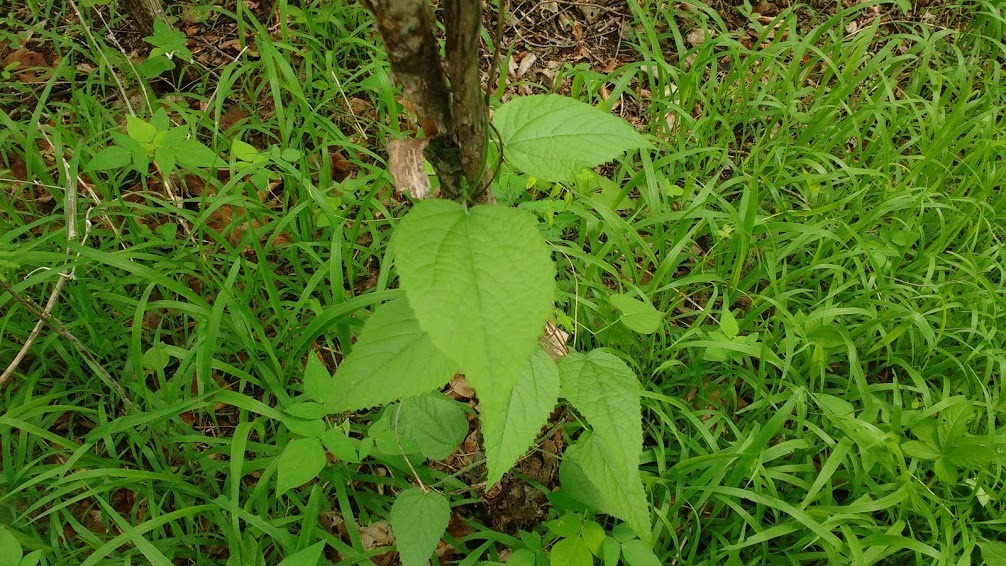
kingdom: Plantae
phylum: Tracheophyta
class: Magnoliopsida
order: Malpighiales
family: Euphorbiaceae
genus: Tragia
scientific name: Tragia cearensis
